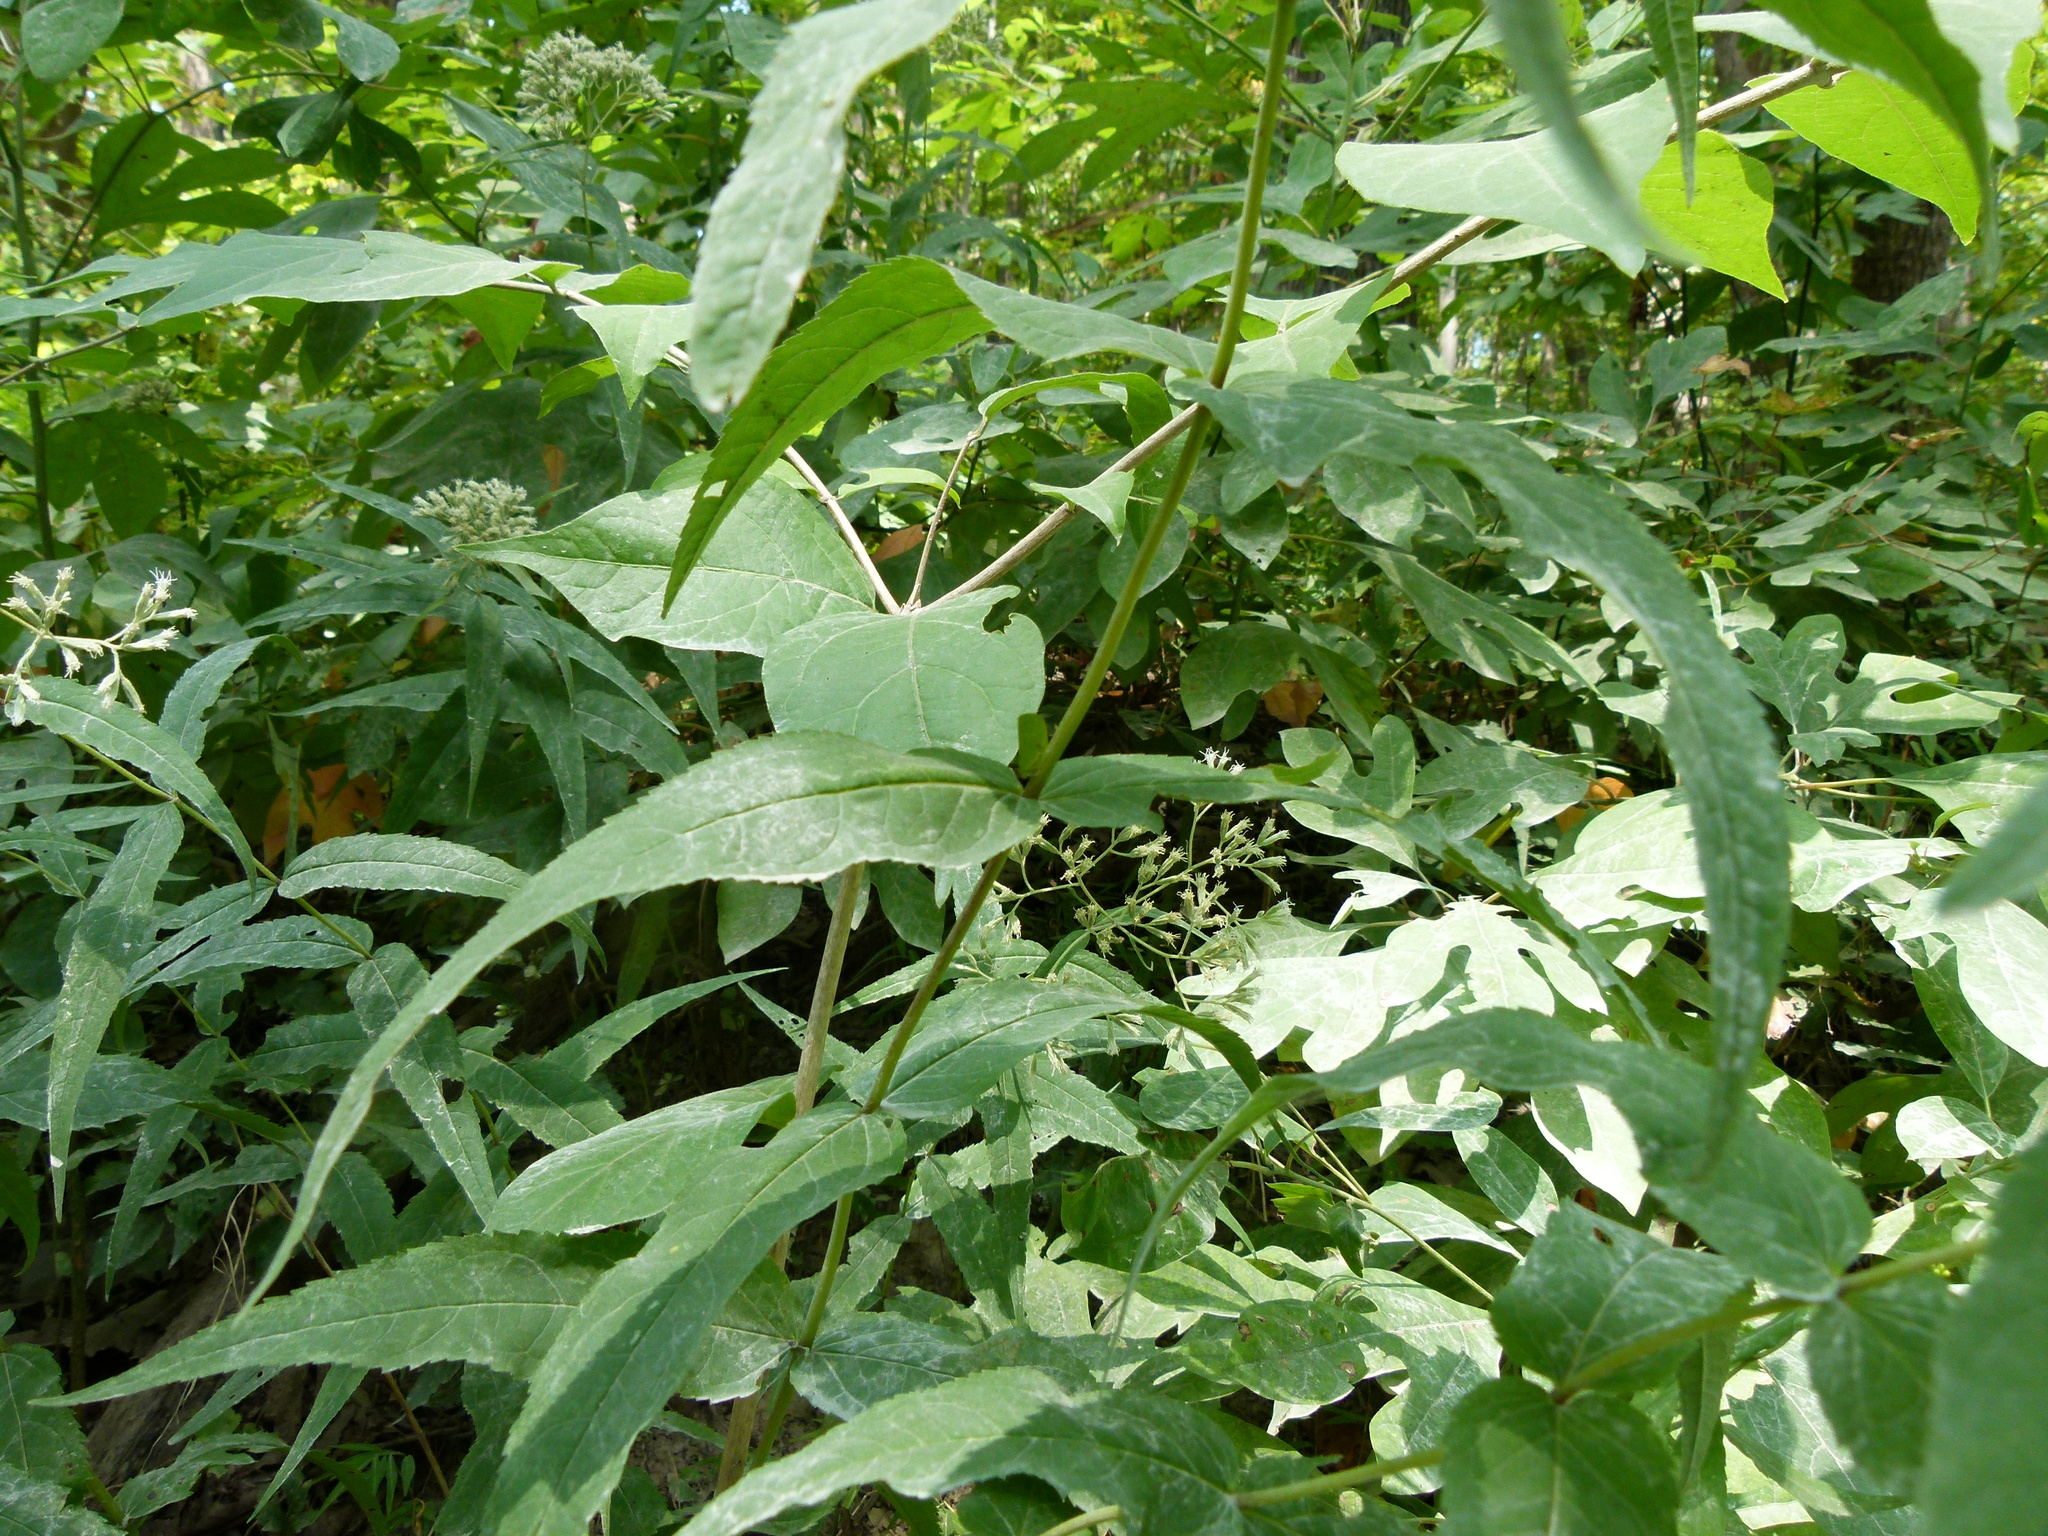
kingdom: Plantae
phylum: Tracheophyta
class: Magnoliopsida
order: Asterales
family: Asteraceae
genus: Eupatorium
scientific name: Eupatorium sessilifolium
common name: Upland boneset
